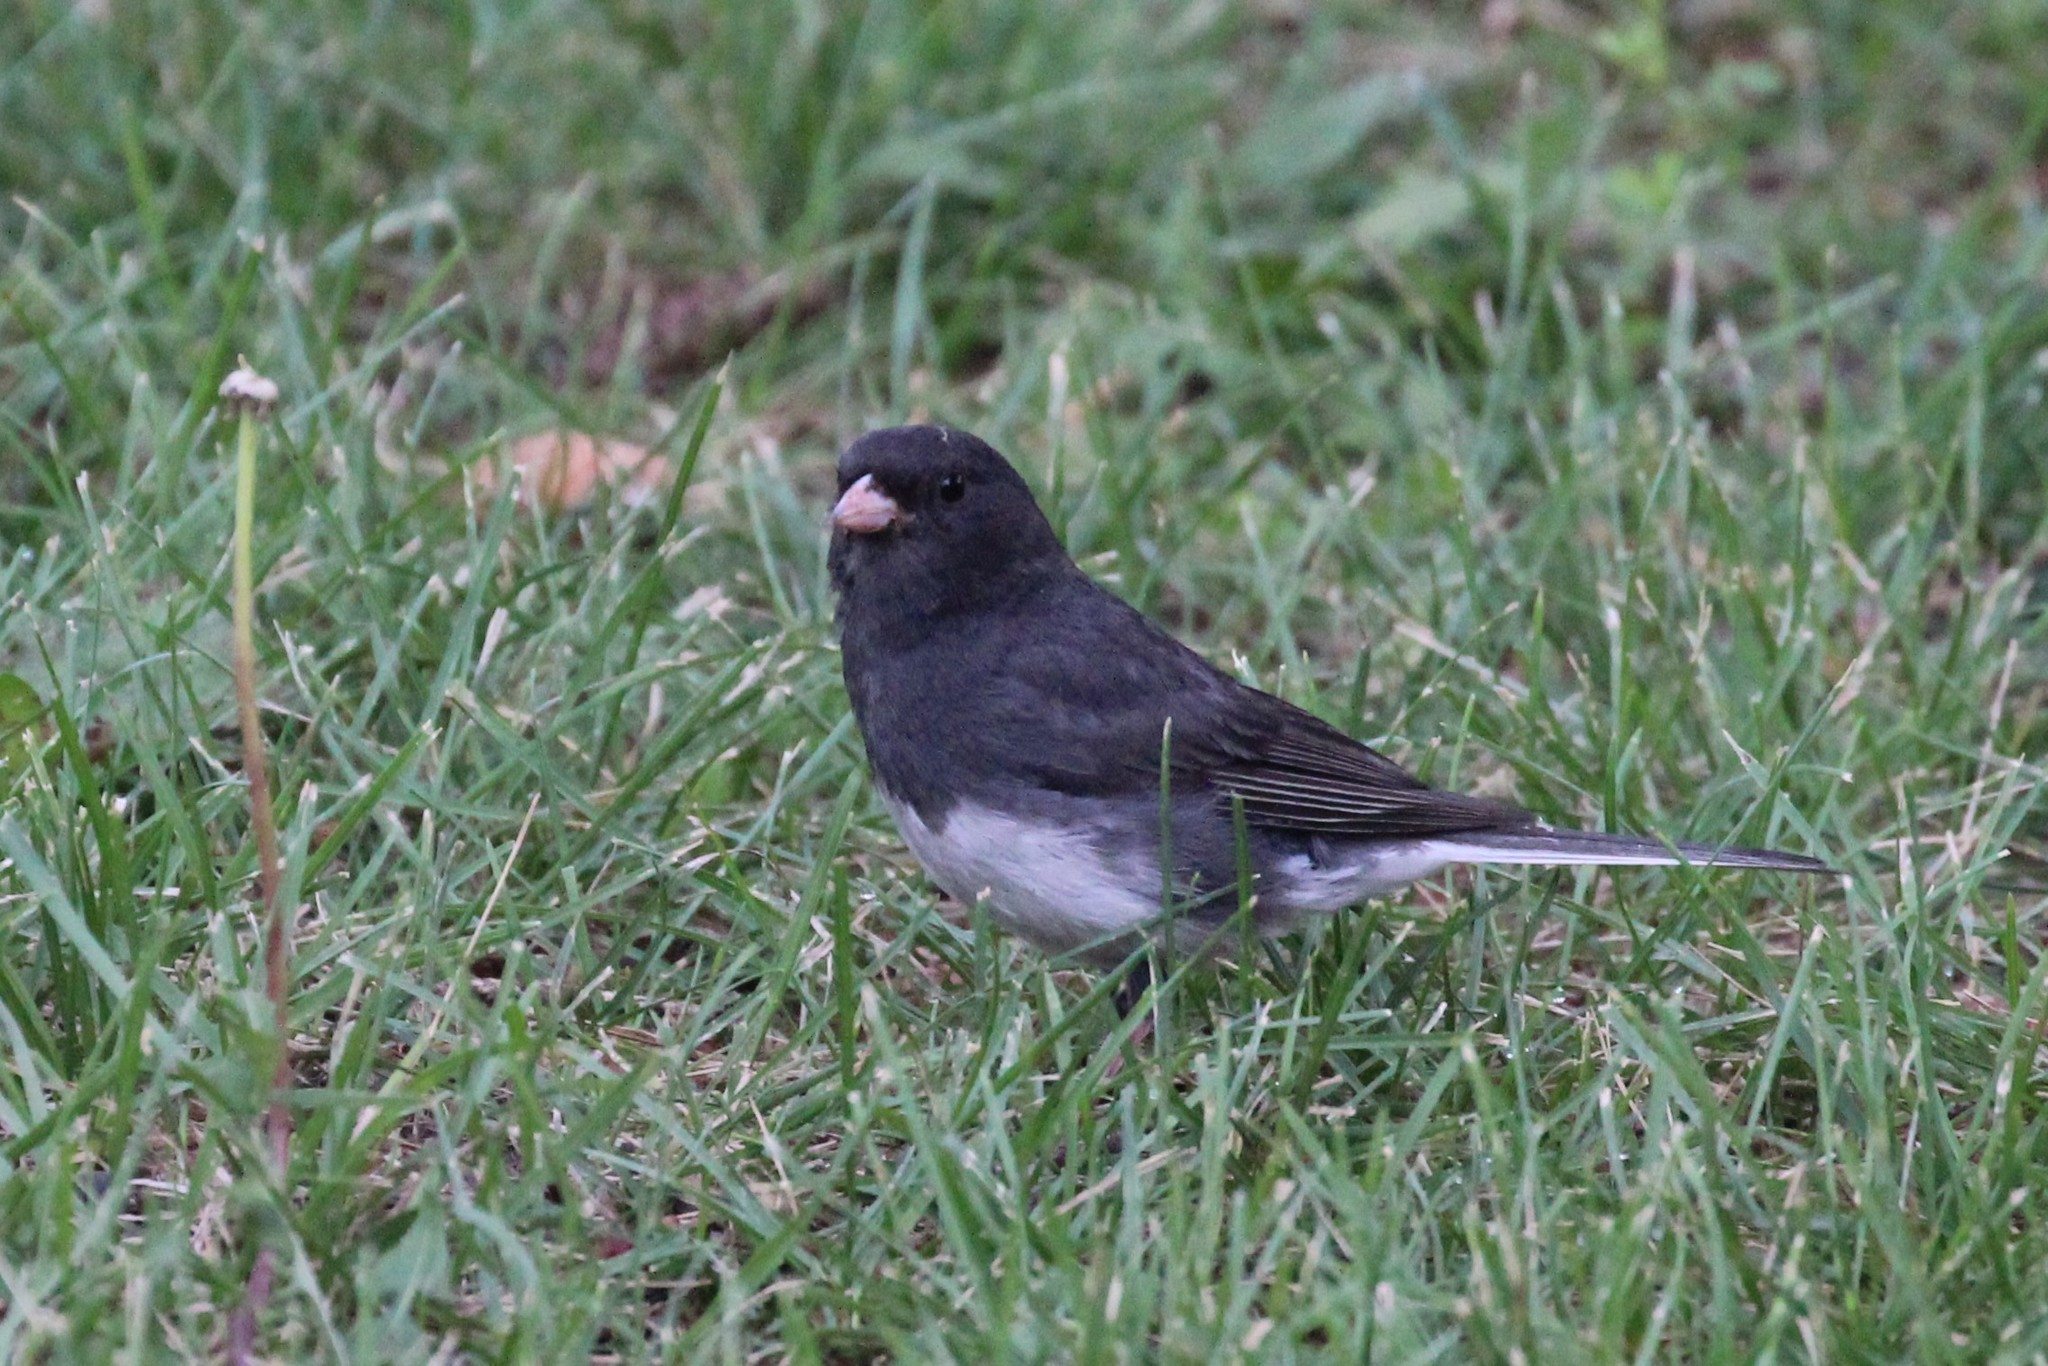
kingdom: Animalia
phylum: Chordata
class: Aves
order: Passeriformes
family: Passerellidae
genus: Junco
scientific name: Junco hyemalis
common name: Dark-eyed junco
